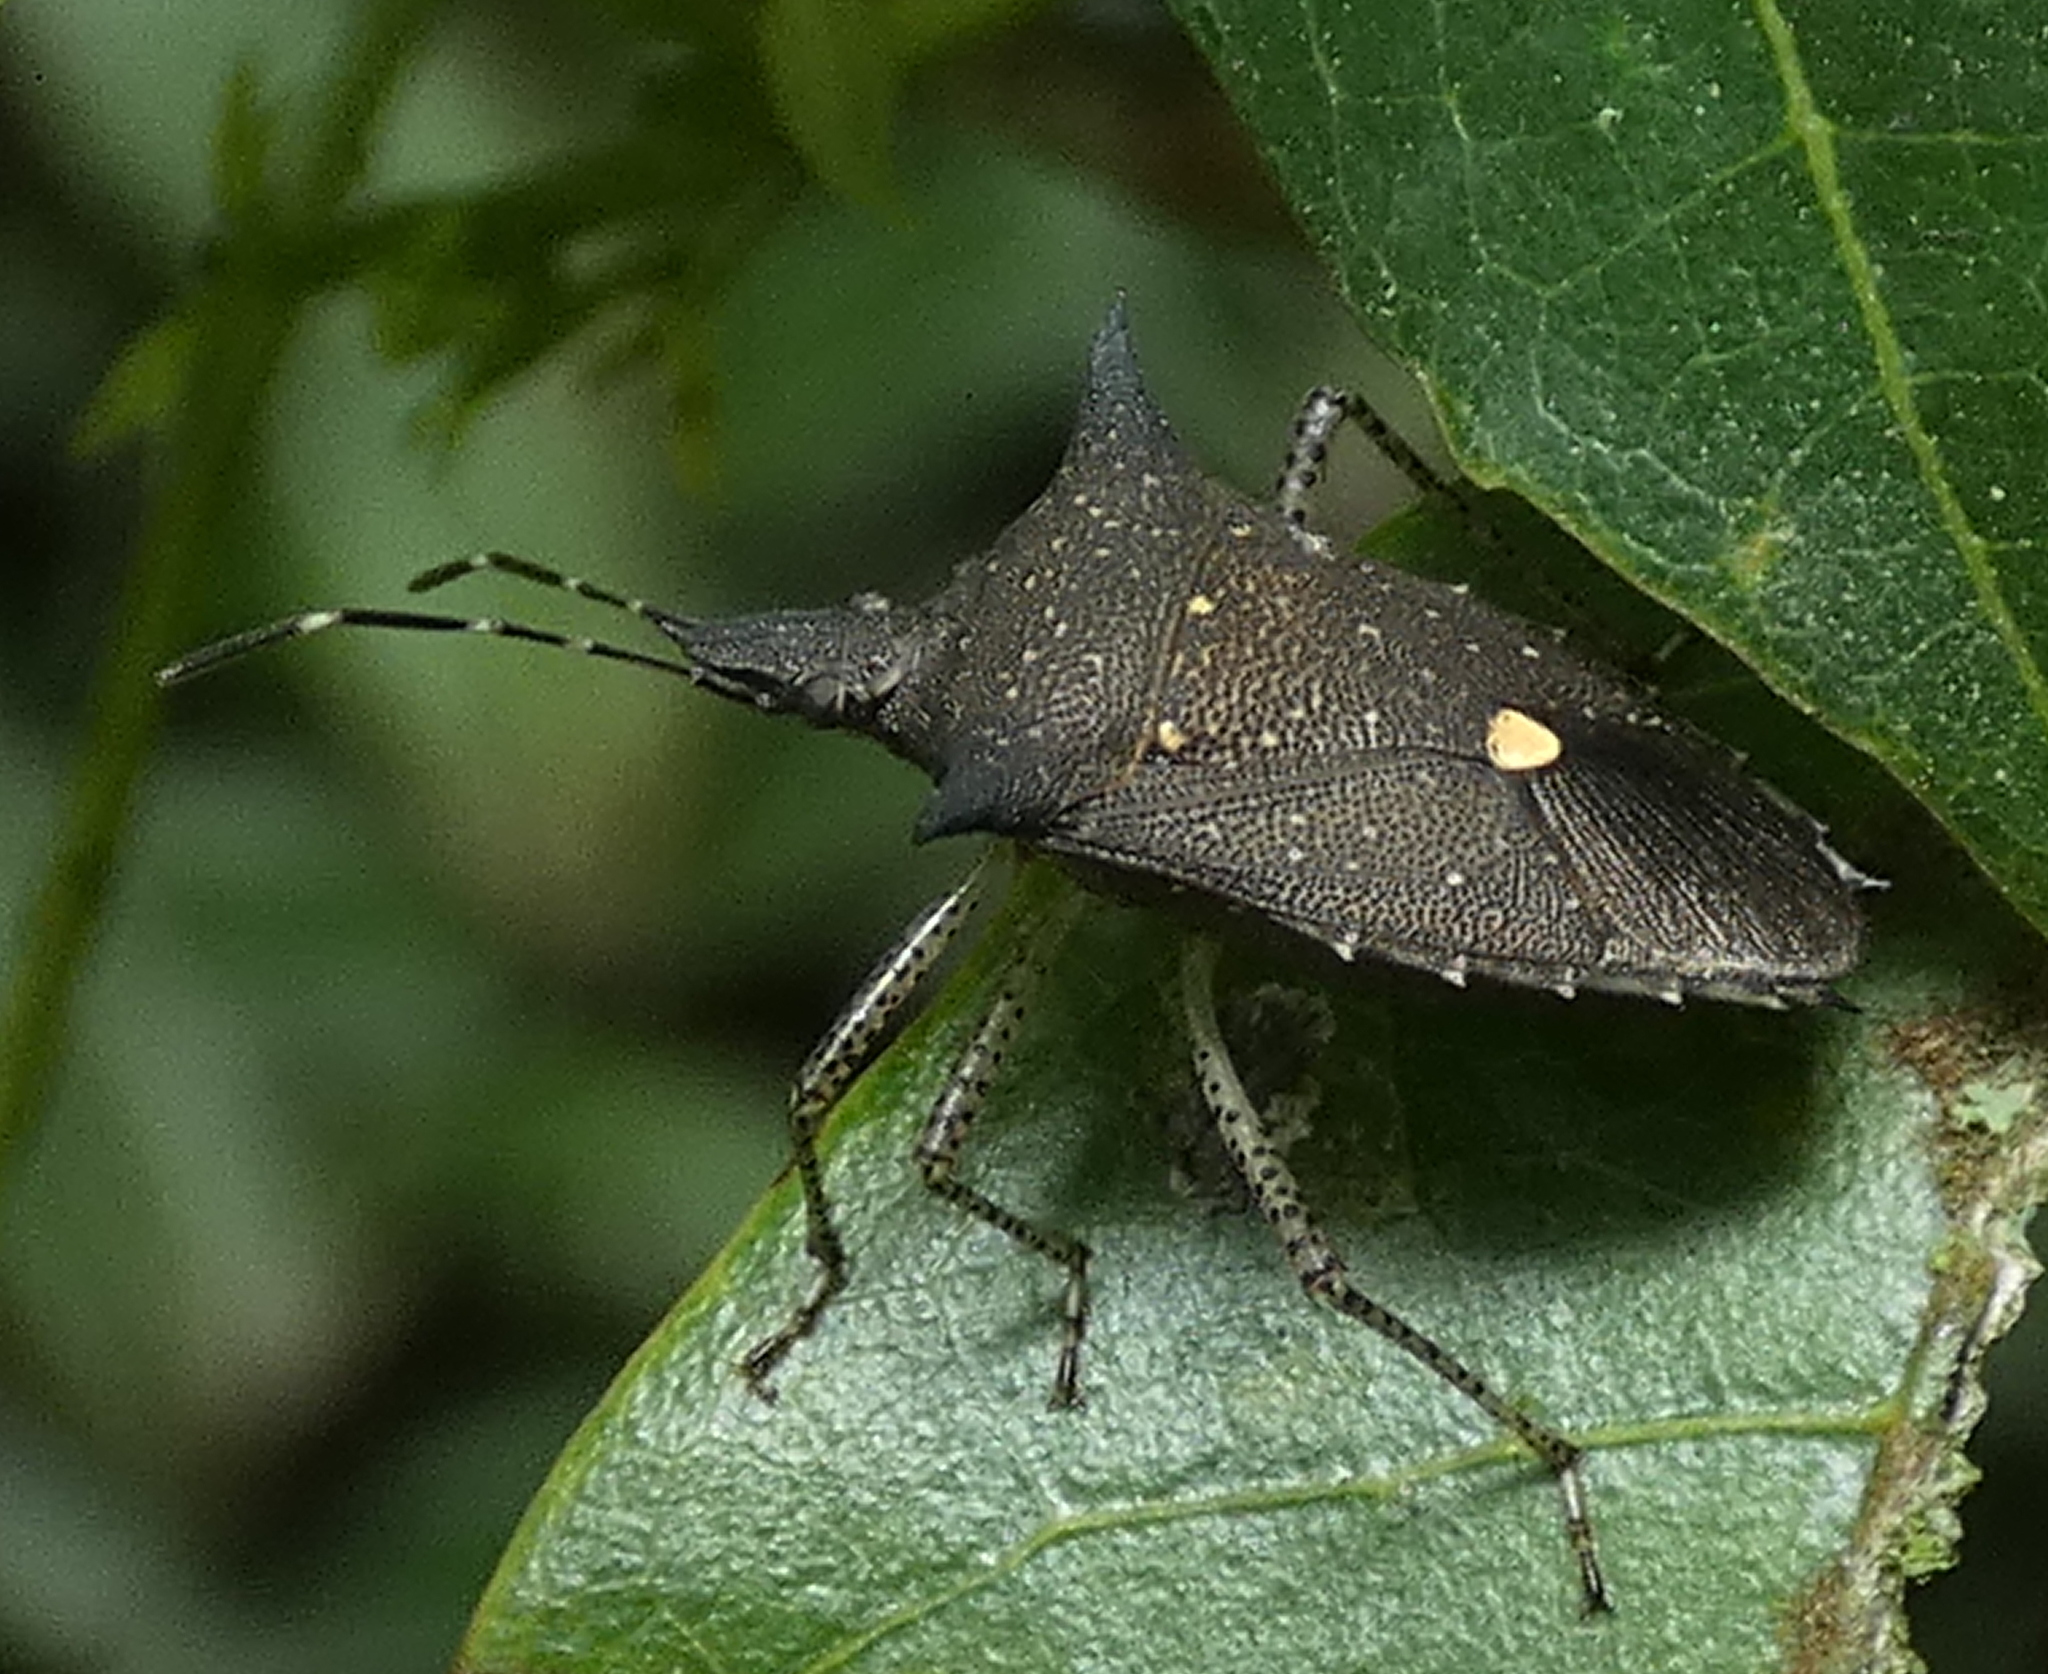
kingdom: Animalia
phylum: Arthropoda
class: Insecta
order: Hemiptera
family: Pentatomidae
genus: Proxys
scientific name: Proxys albopunctulatus
